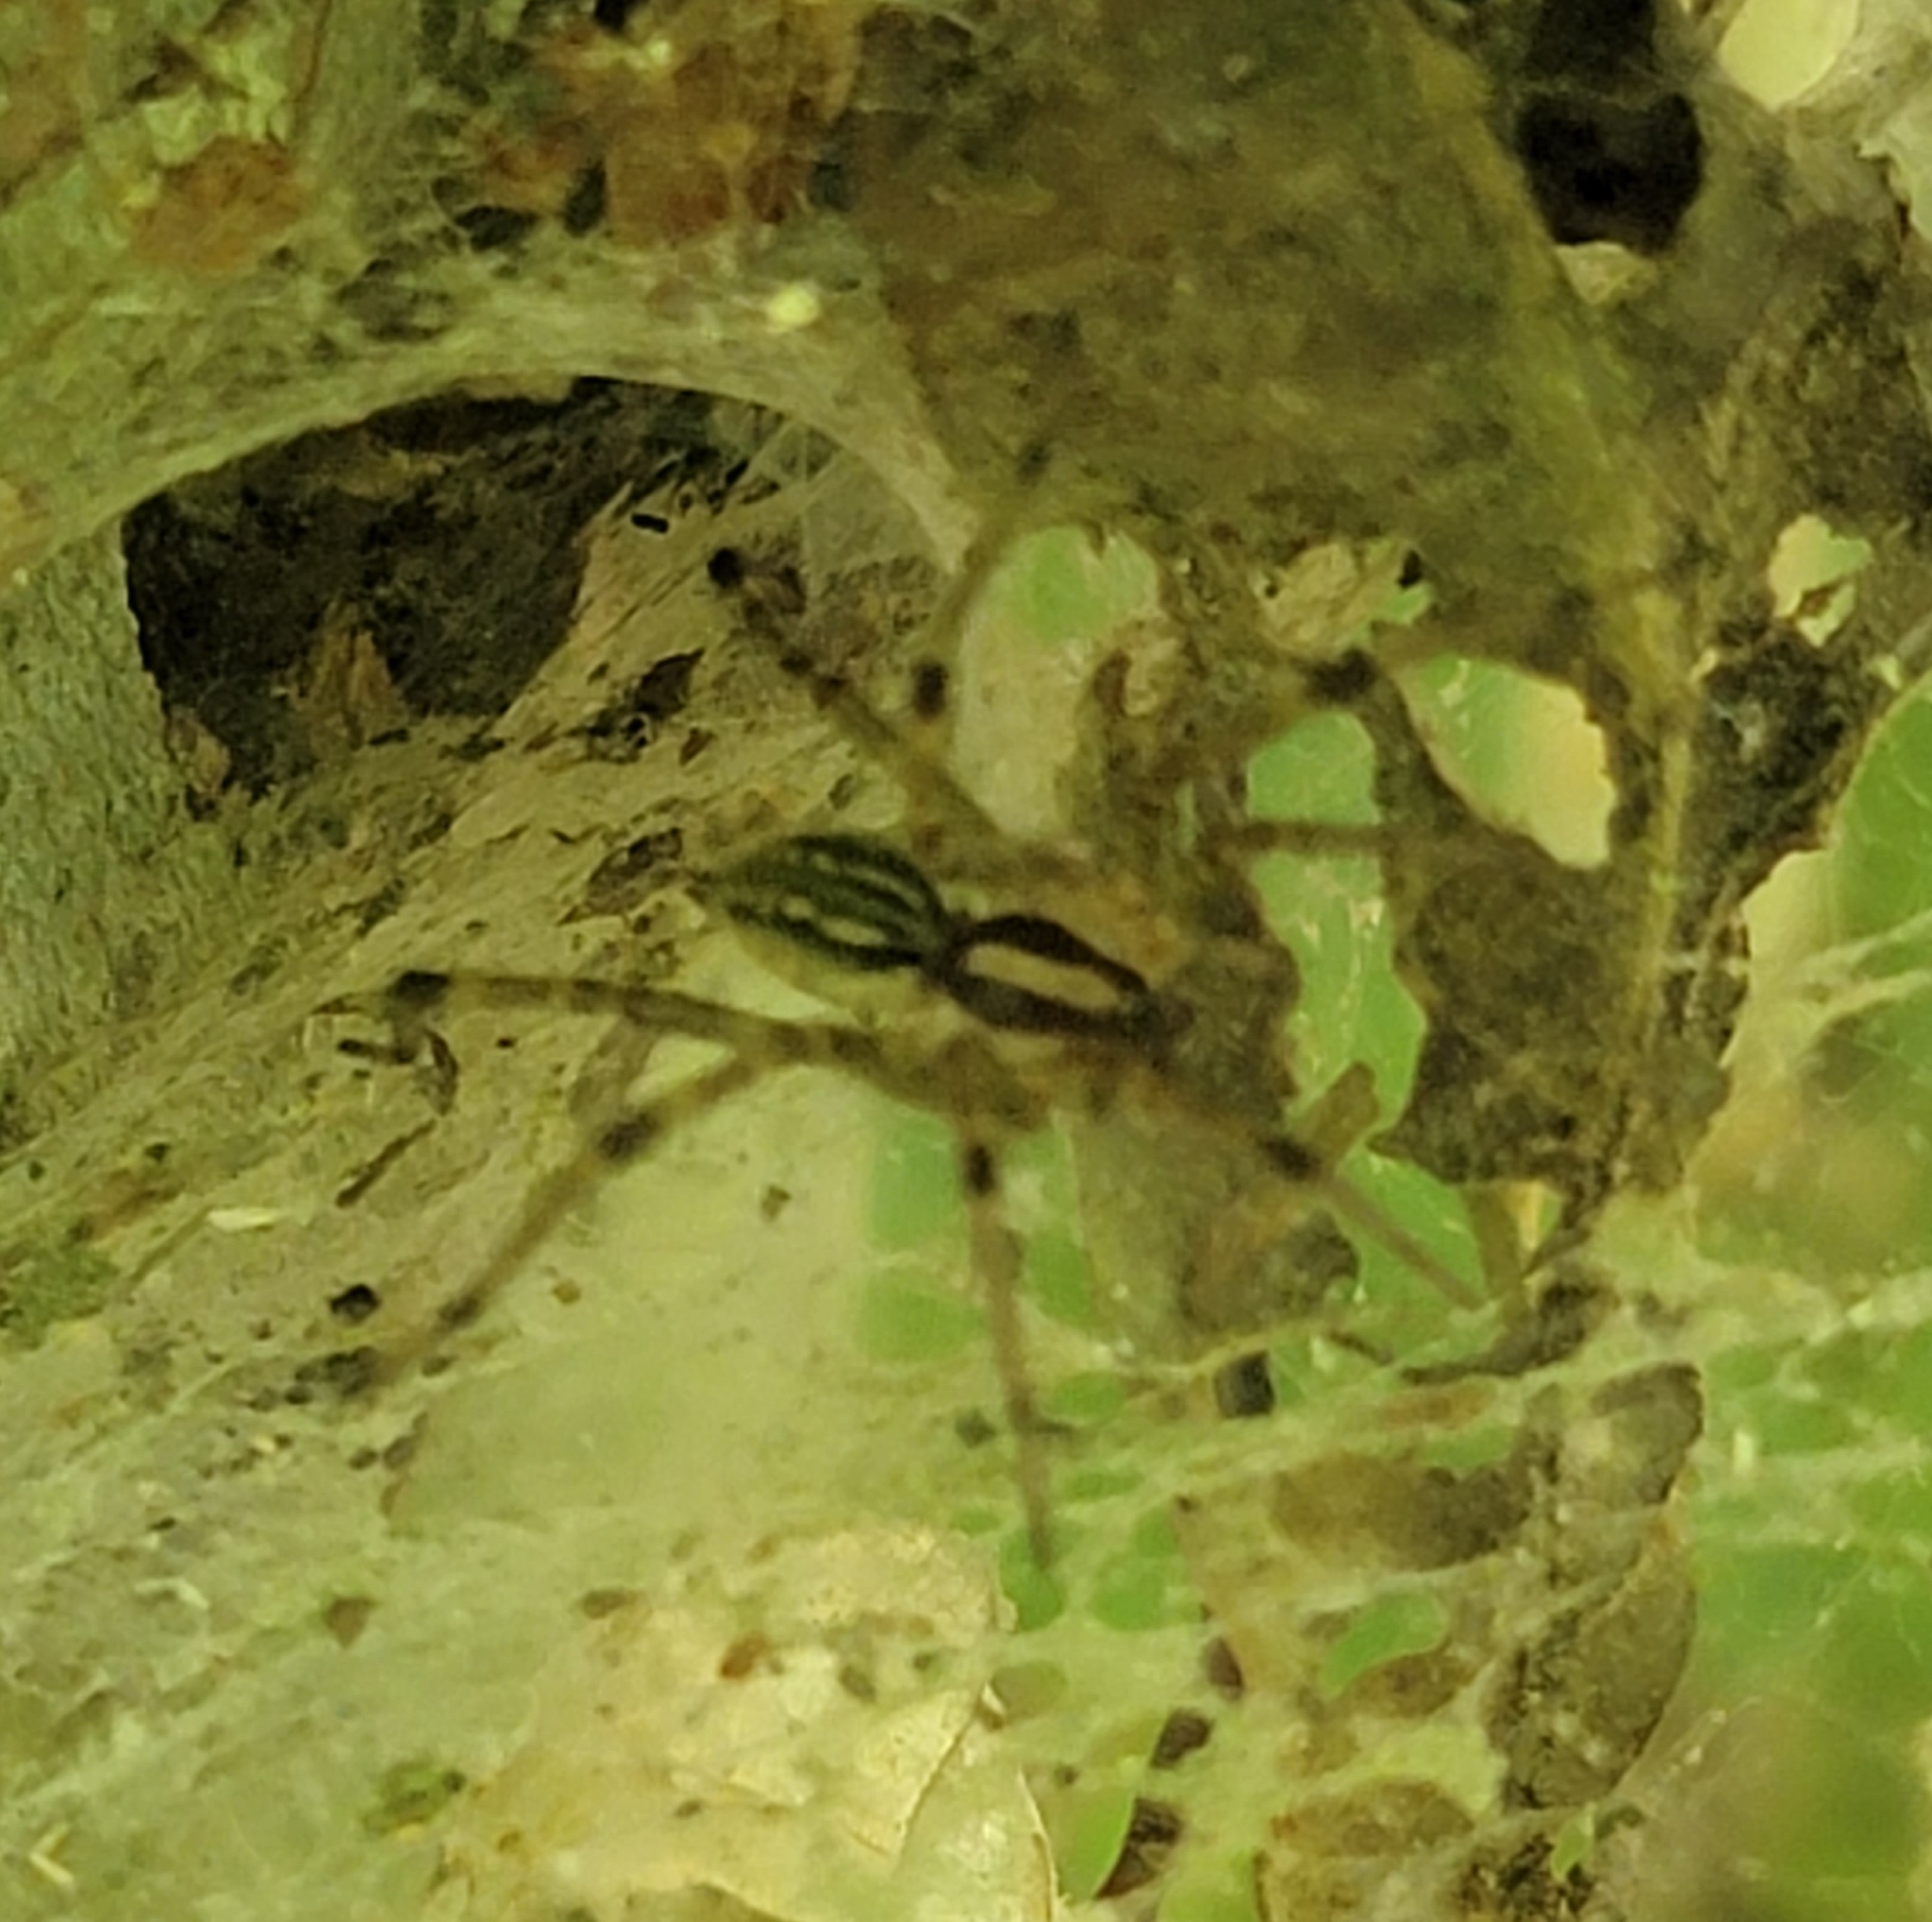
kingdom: Animalia
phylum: Arthropoda
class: Arachnida
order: Araneae
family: Agelenidae
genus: Agelenopsis
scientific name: Agelenopsis
